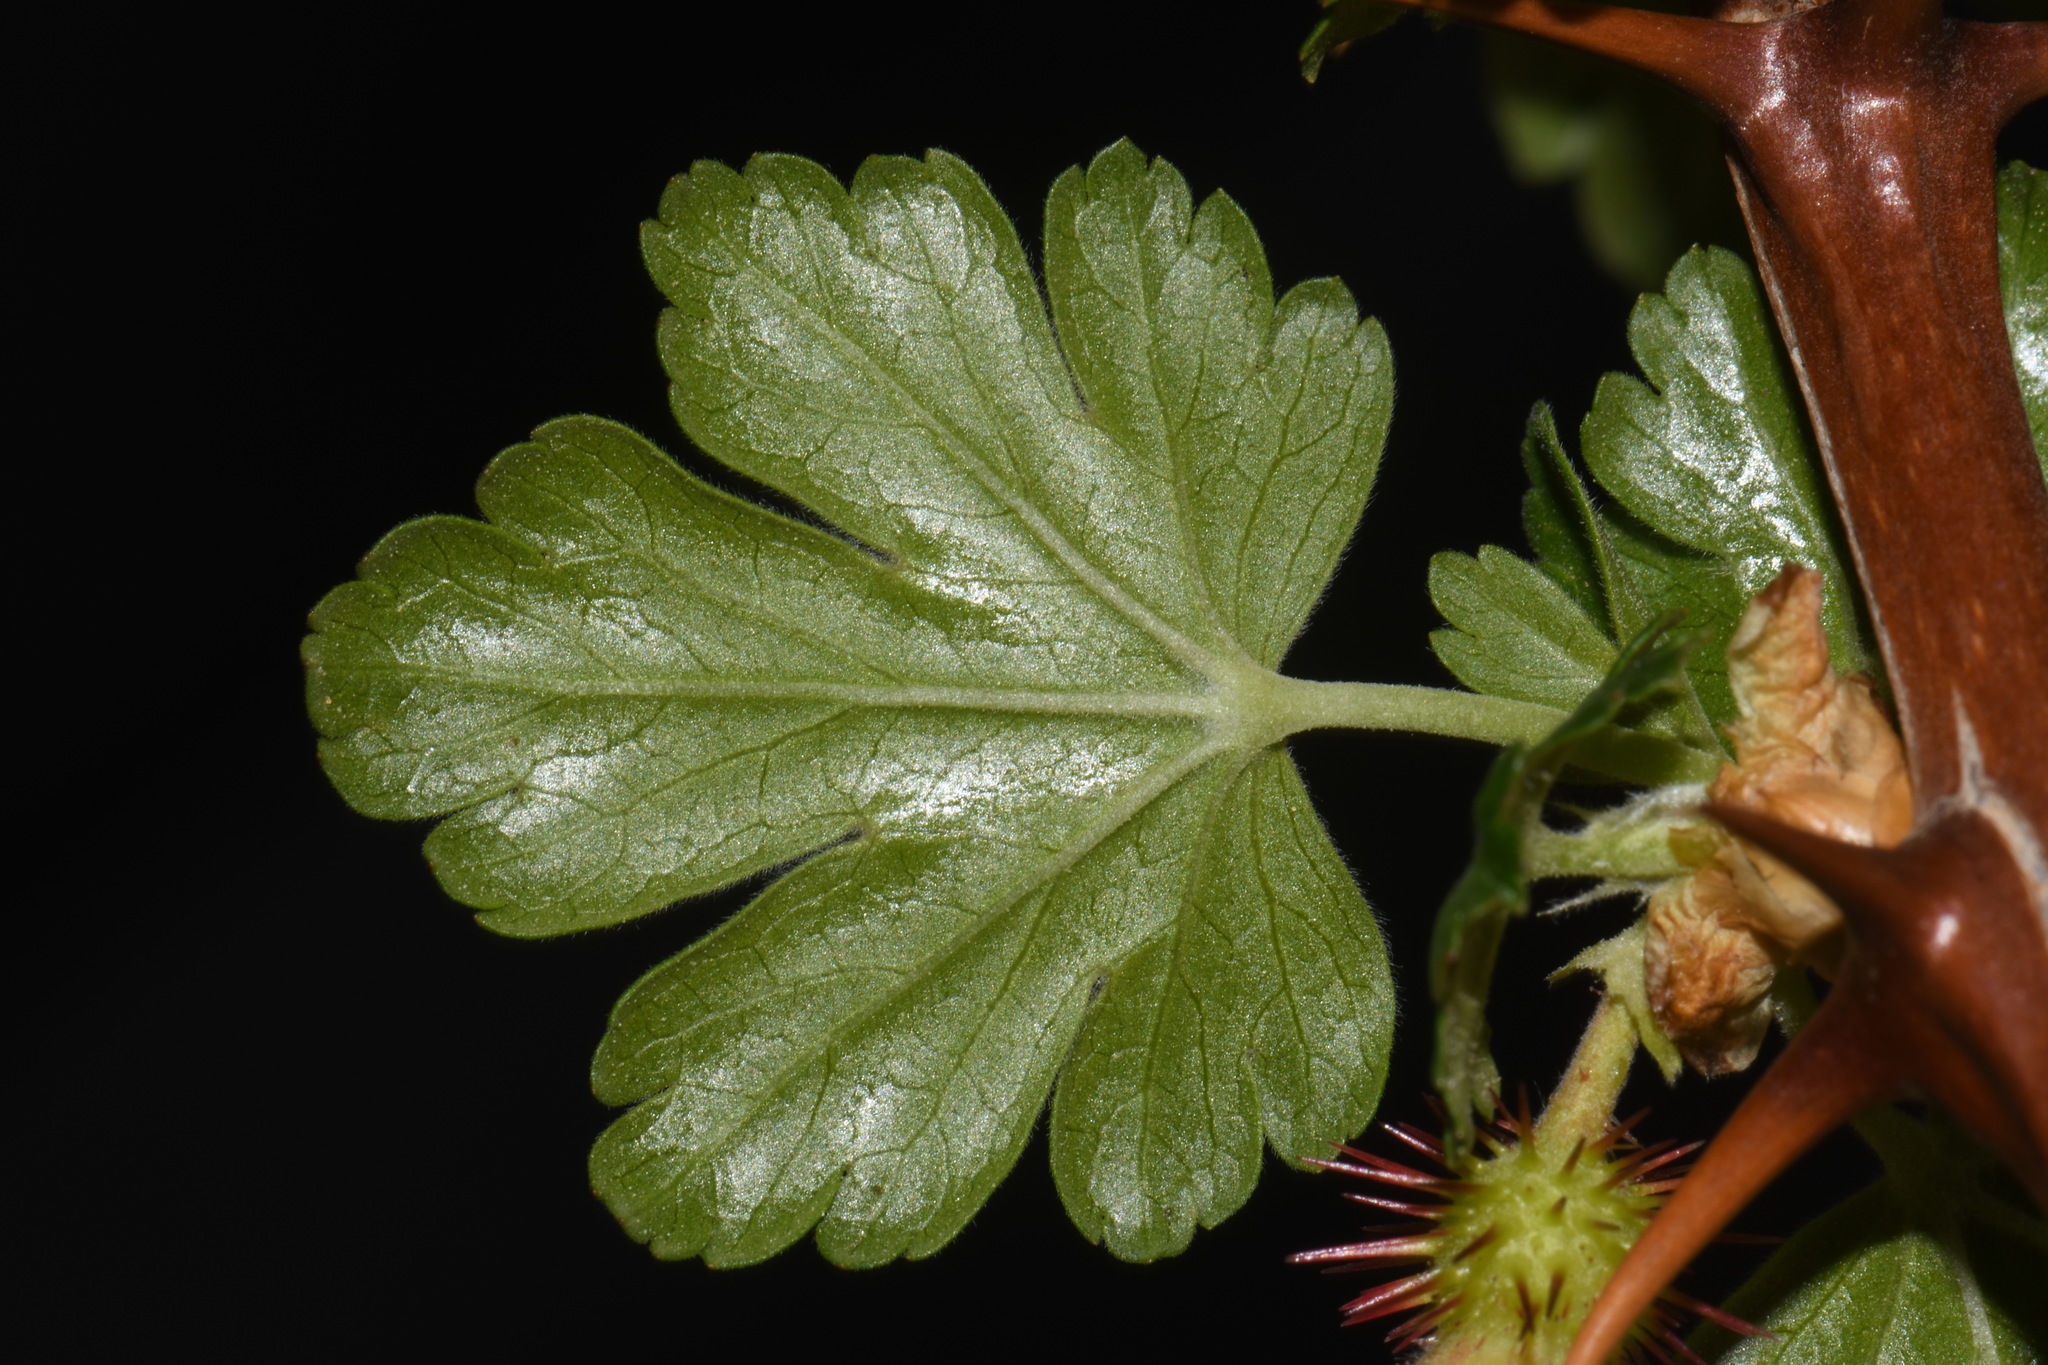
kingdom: Plantae
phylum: Tracheophyta
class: Magnoliopsida
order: Saxifragales
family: Grossulariaceae
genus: Ribes
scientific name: Ribes pinetorum
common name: Orange gooseberry
